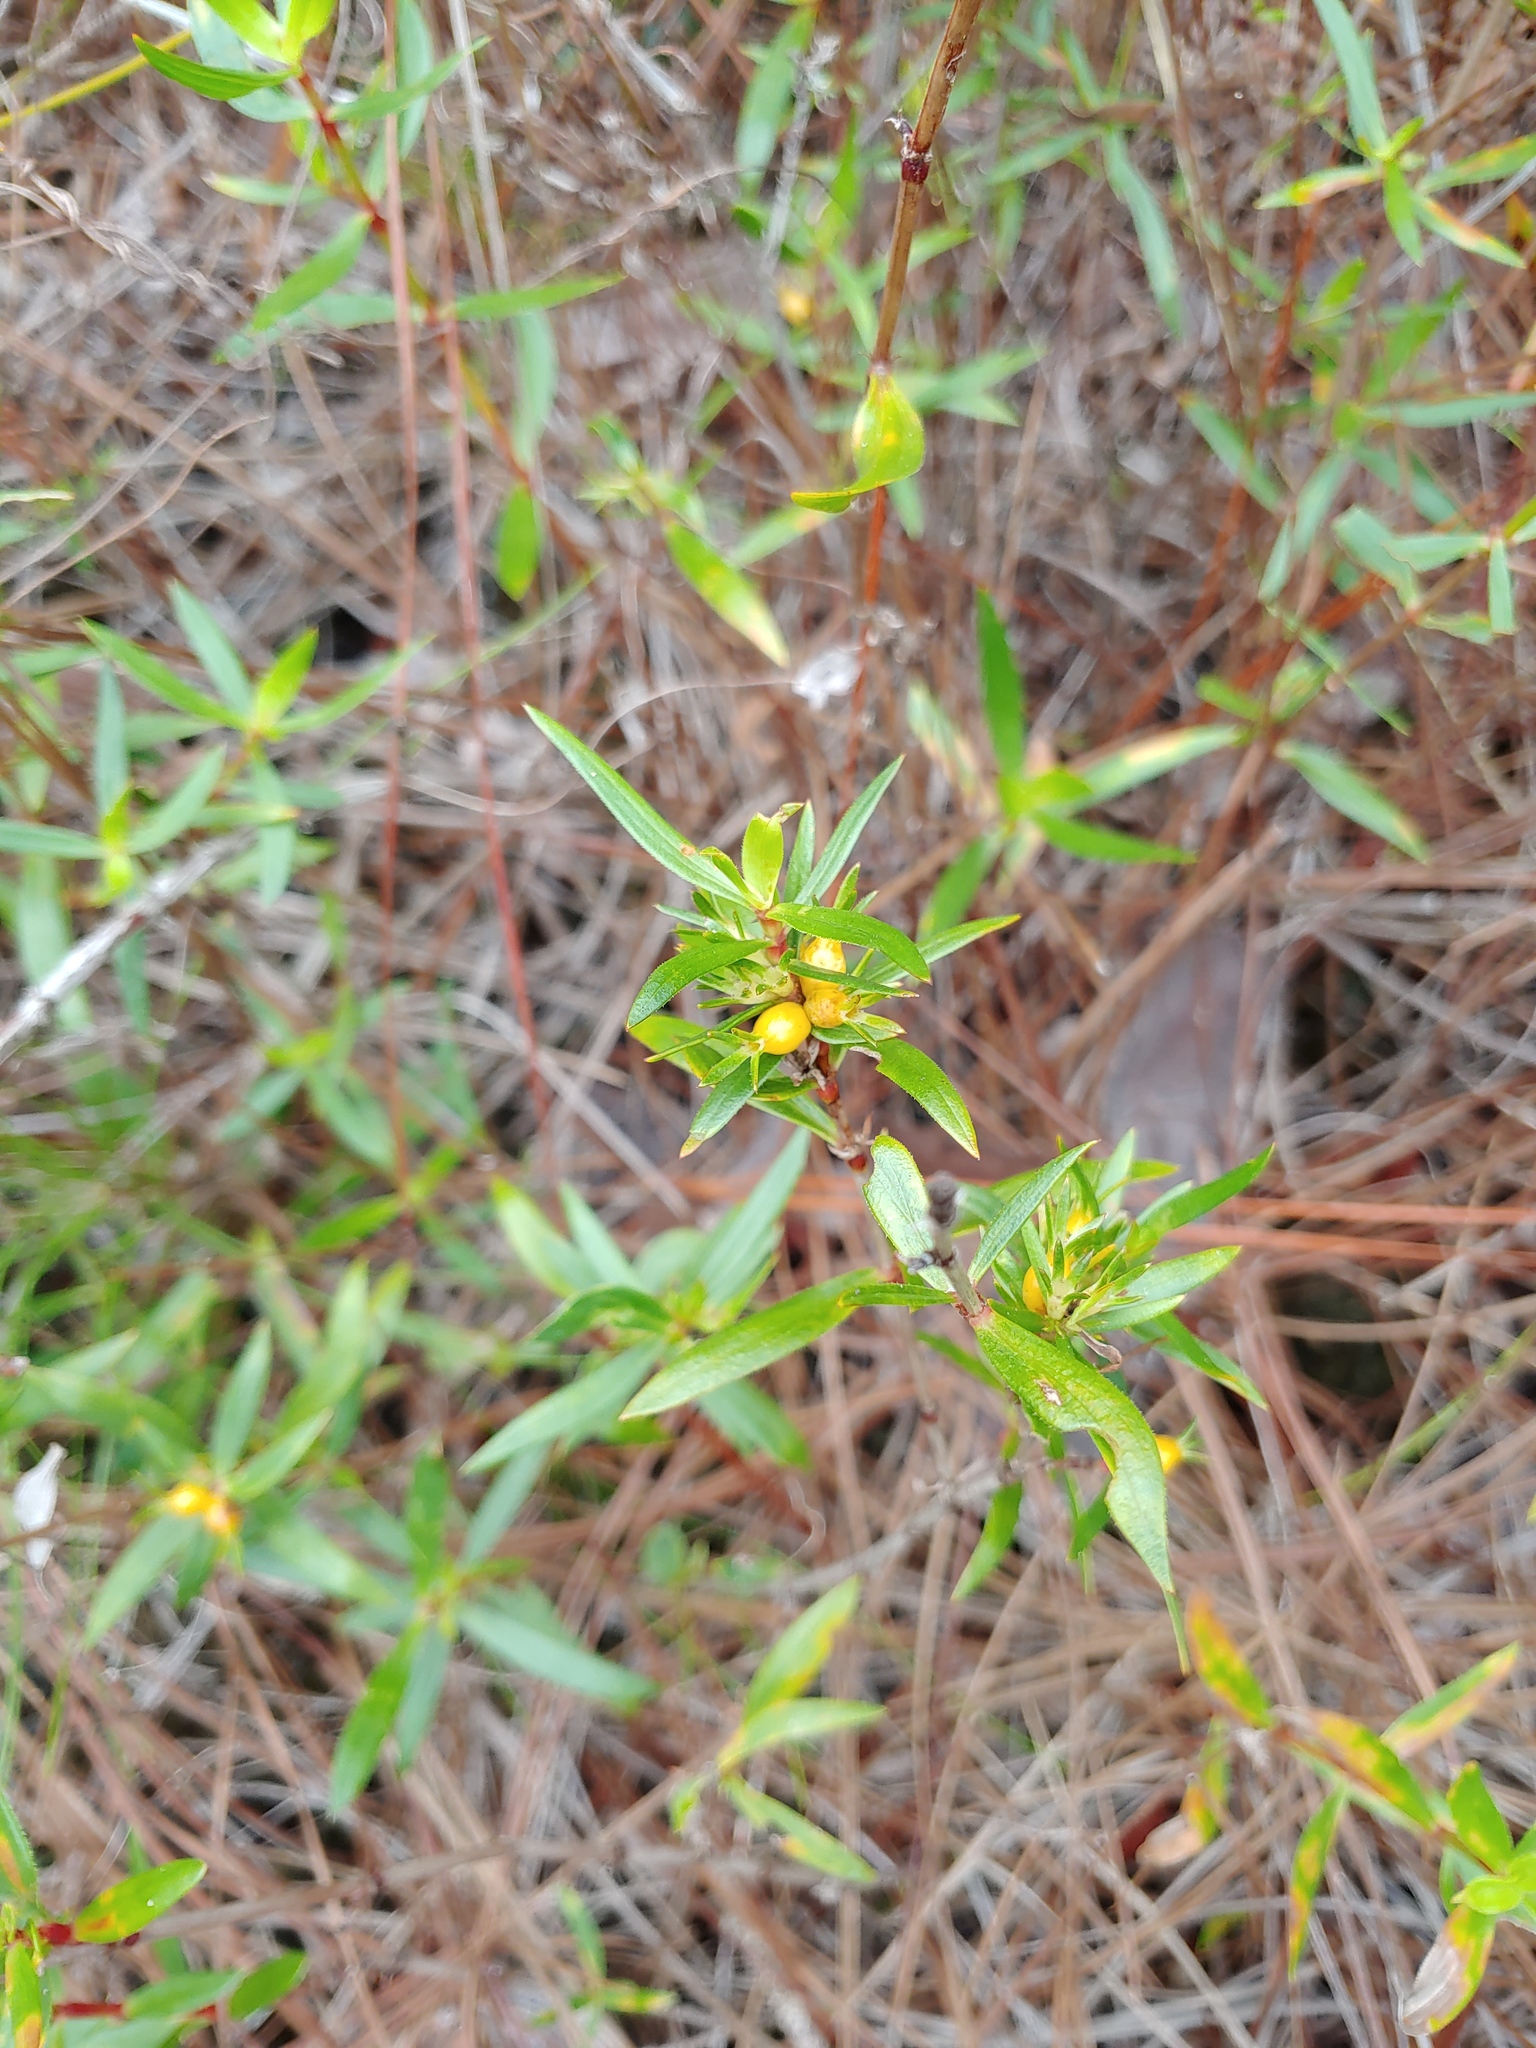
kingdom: Plantae
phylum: Tracheophyta
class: Magnoliopsida
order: Gentianales
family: Rubiaceae
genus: Ernodea
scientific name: Ernodea littoralis
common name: Beach creeper
